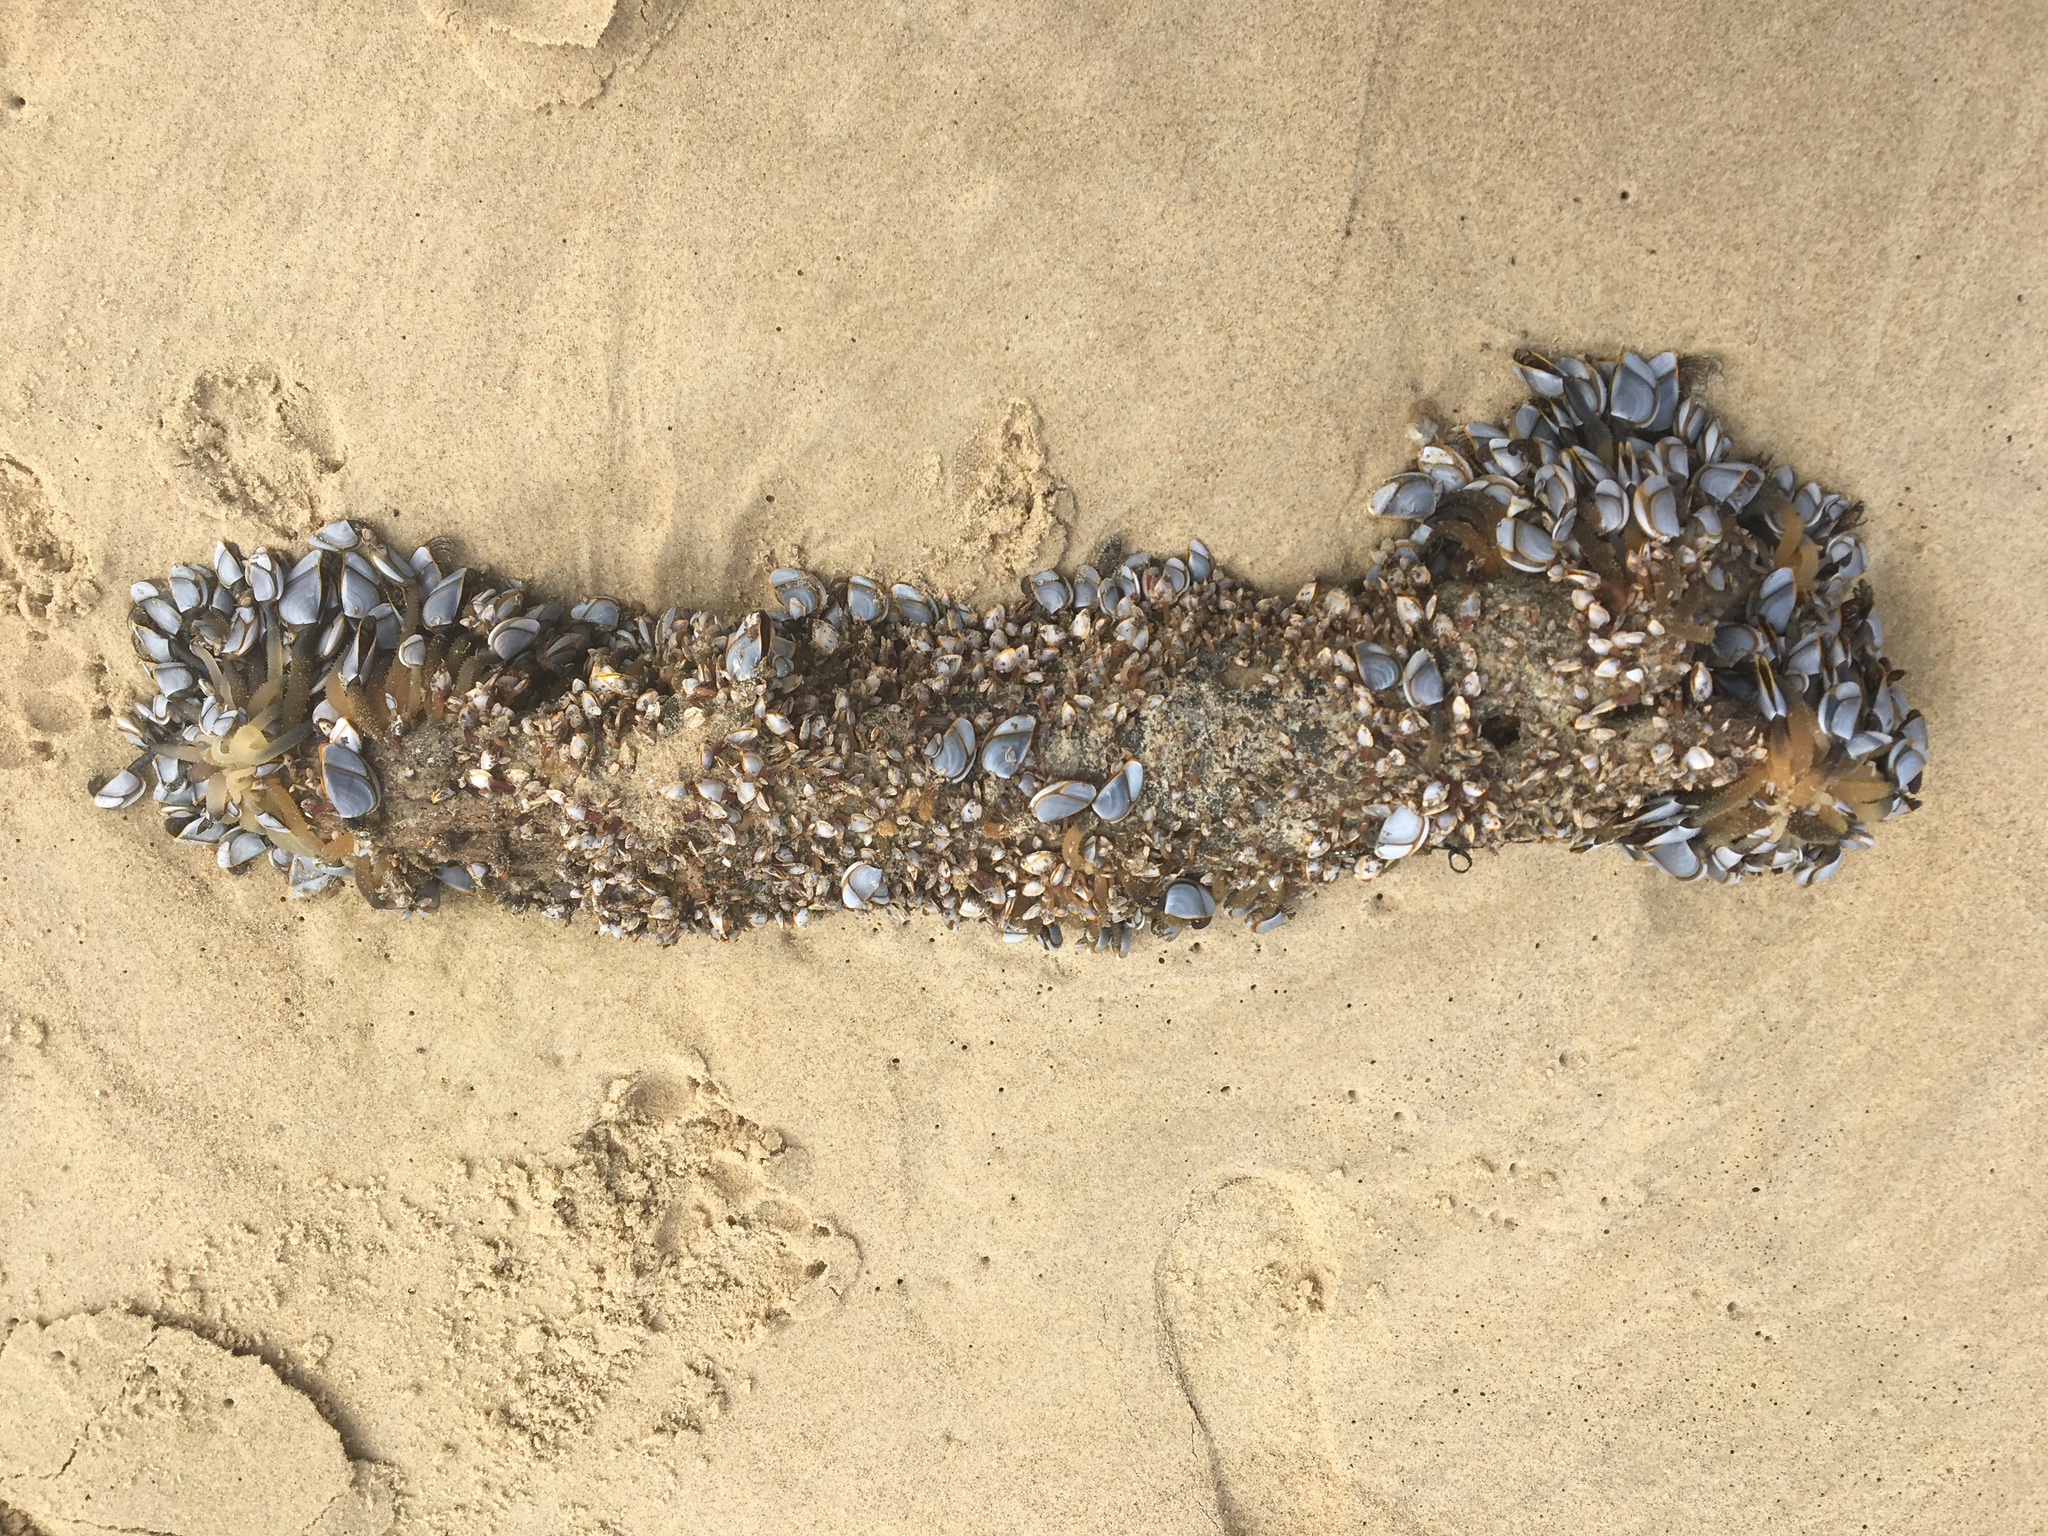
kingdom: Animalia
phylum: Arthropoda
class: Maxillopoda
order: Pedunculata
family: Lepadidae
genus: Lepas
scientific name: Lepas testudinata
